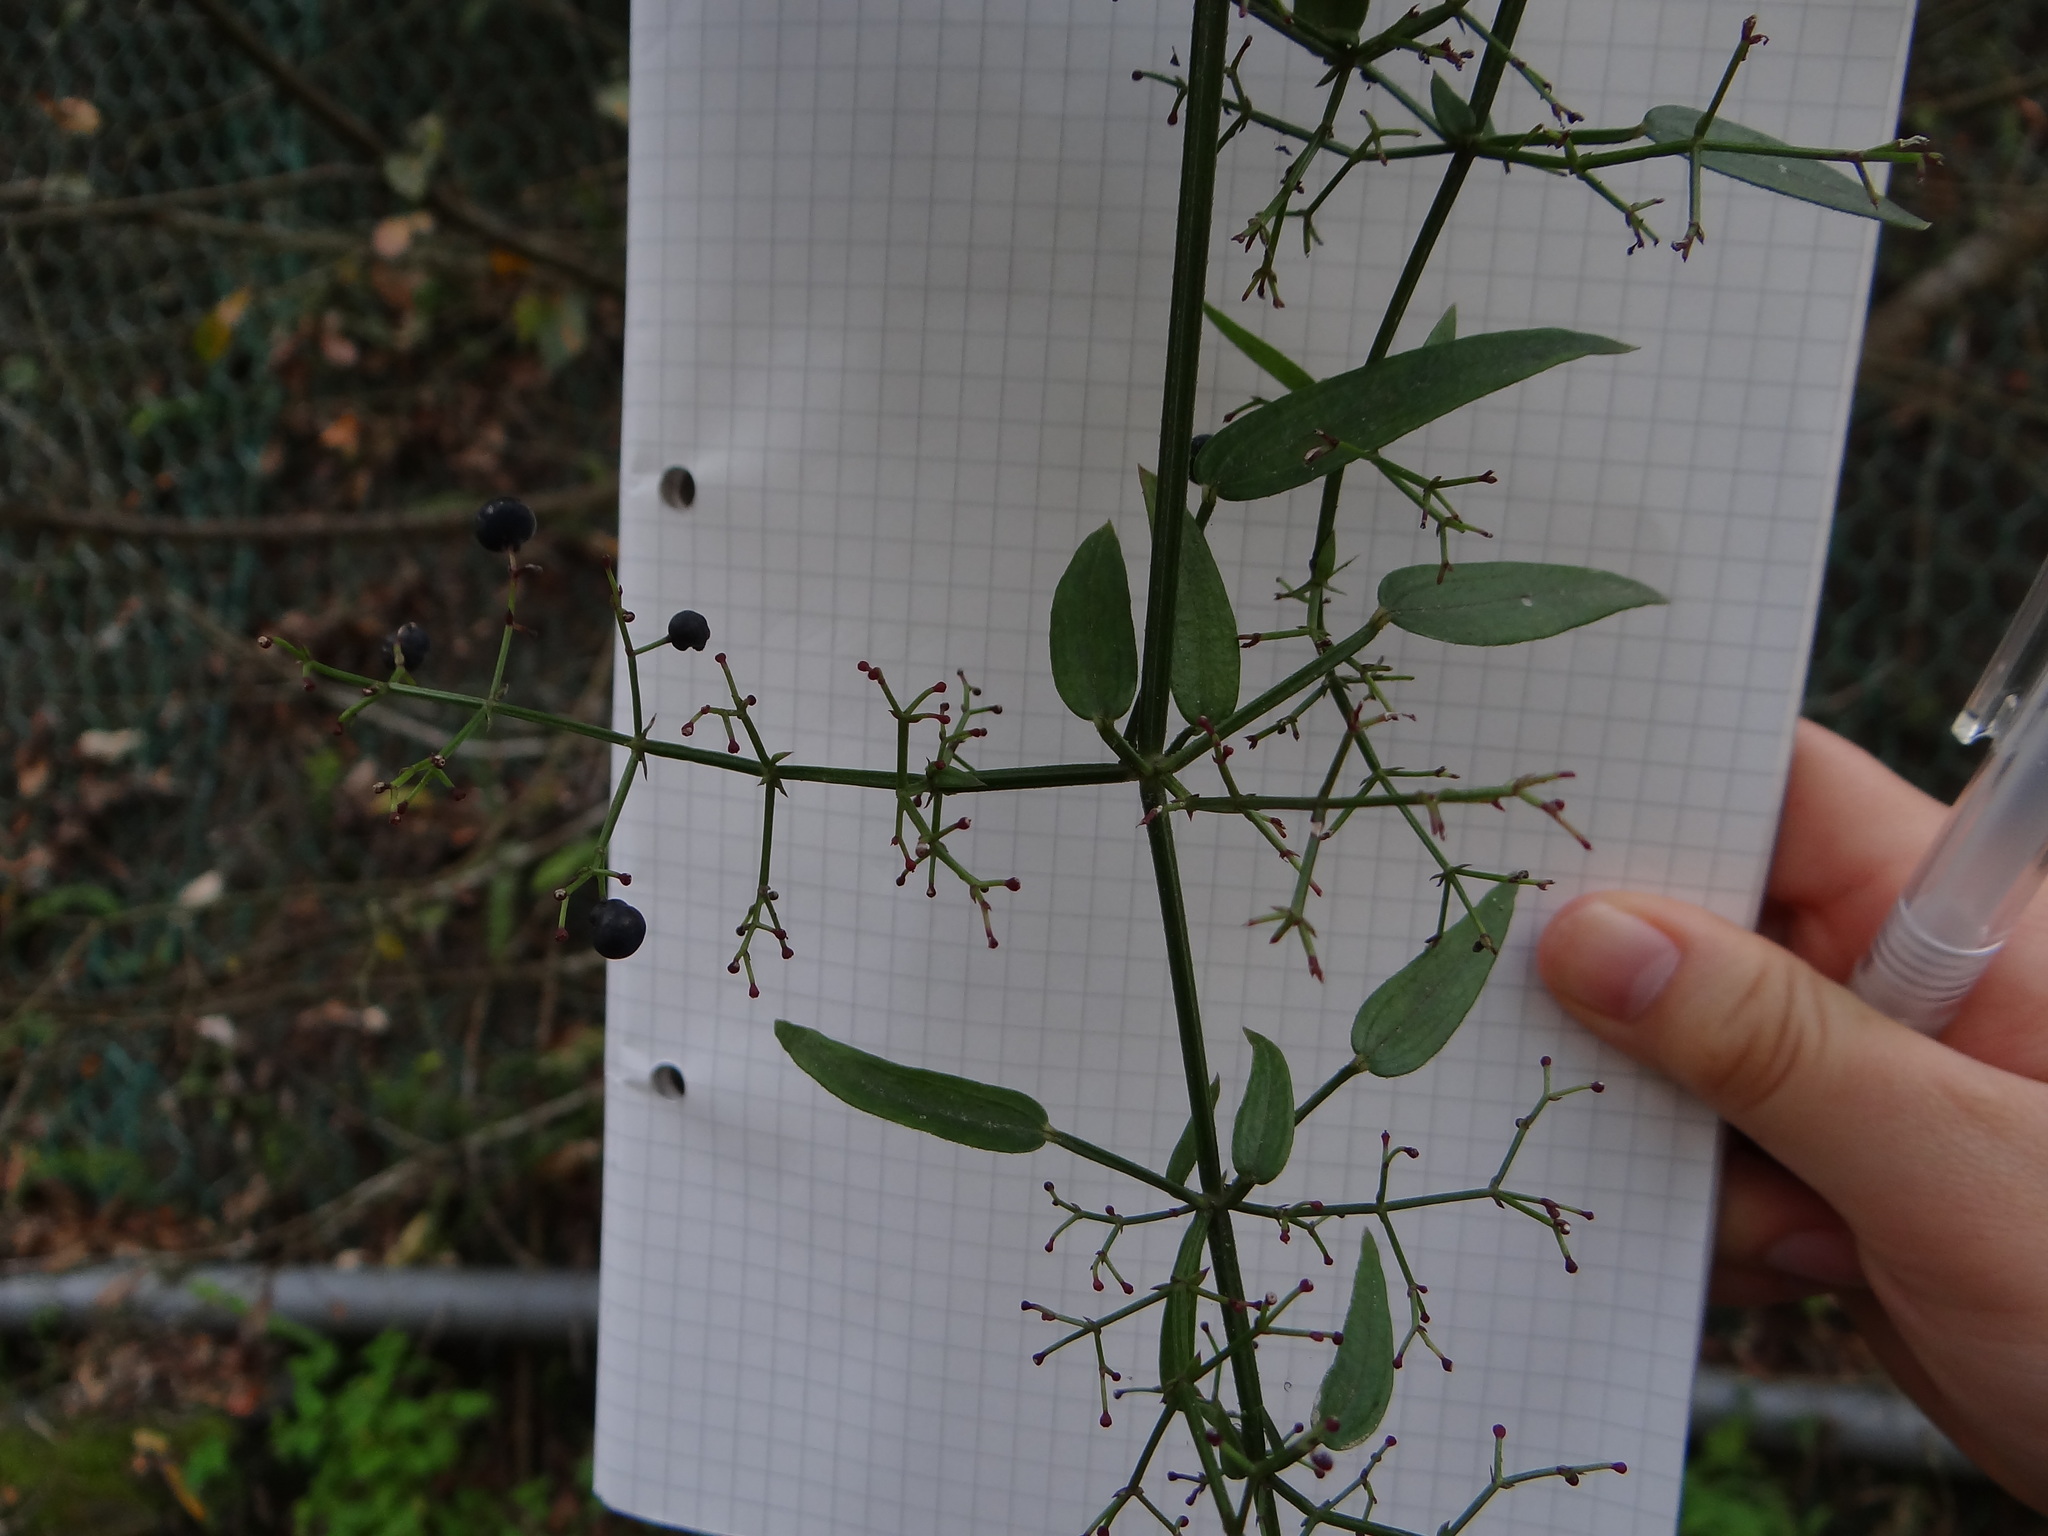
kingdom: Plantae
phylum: Tracheophyta
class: Magnoliopsida
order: Gentianales
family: Rubiaceae
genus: Rubia
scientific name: Rubia alata
